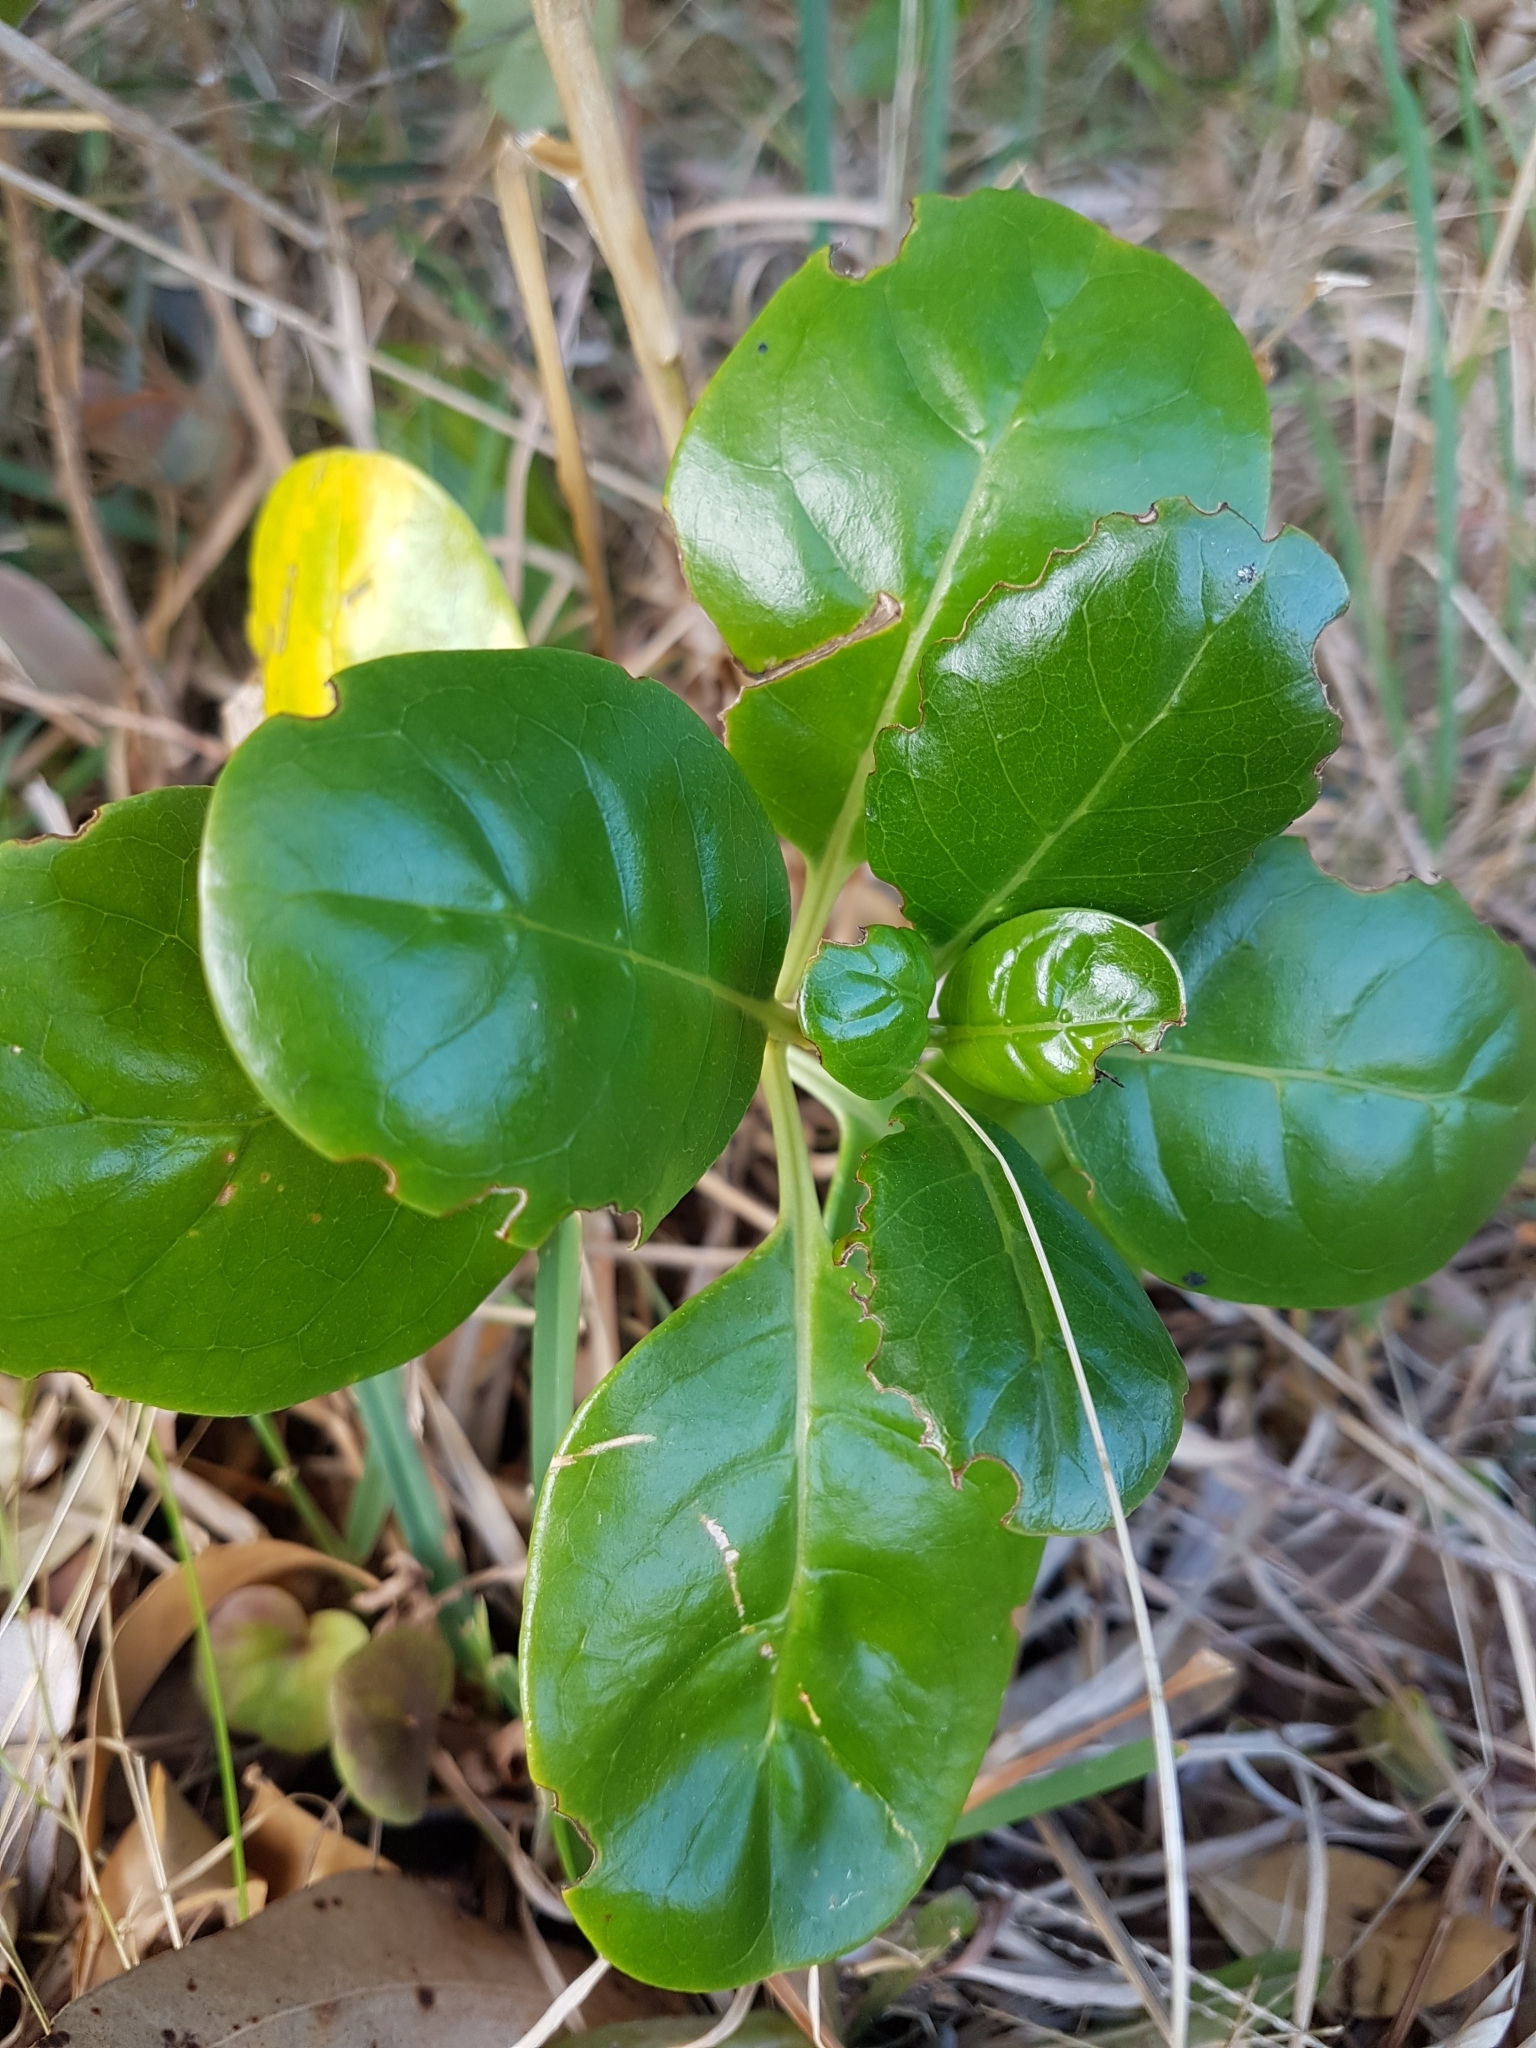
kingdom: Plantae
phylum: Tracheophyta
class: Magnoliopsida
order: Gentianales
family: Rubiaceae
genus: Coprosma
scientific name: Coprosma repens
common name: Tree bedstraw
